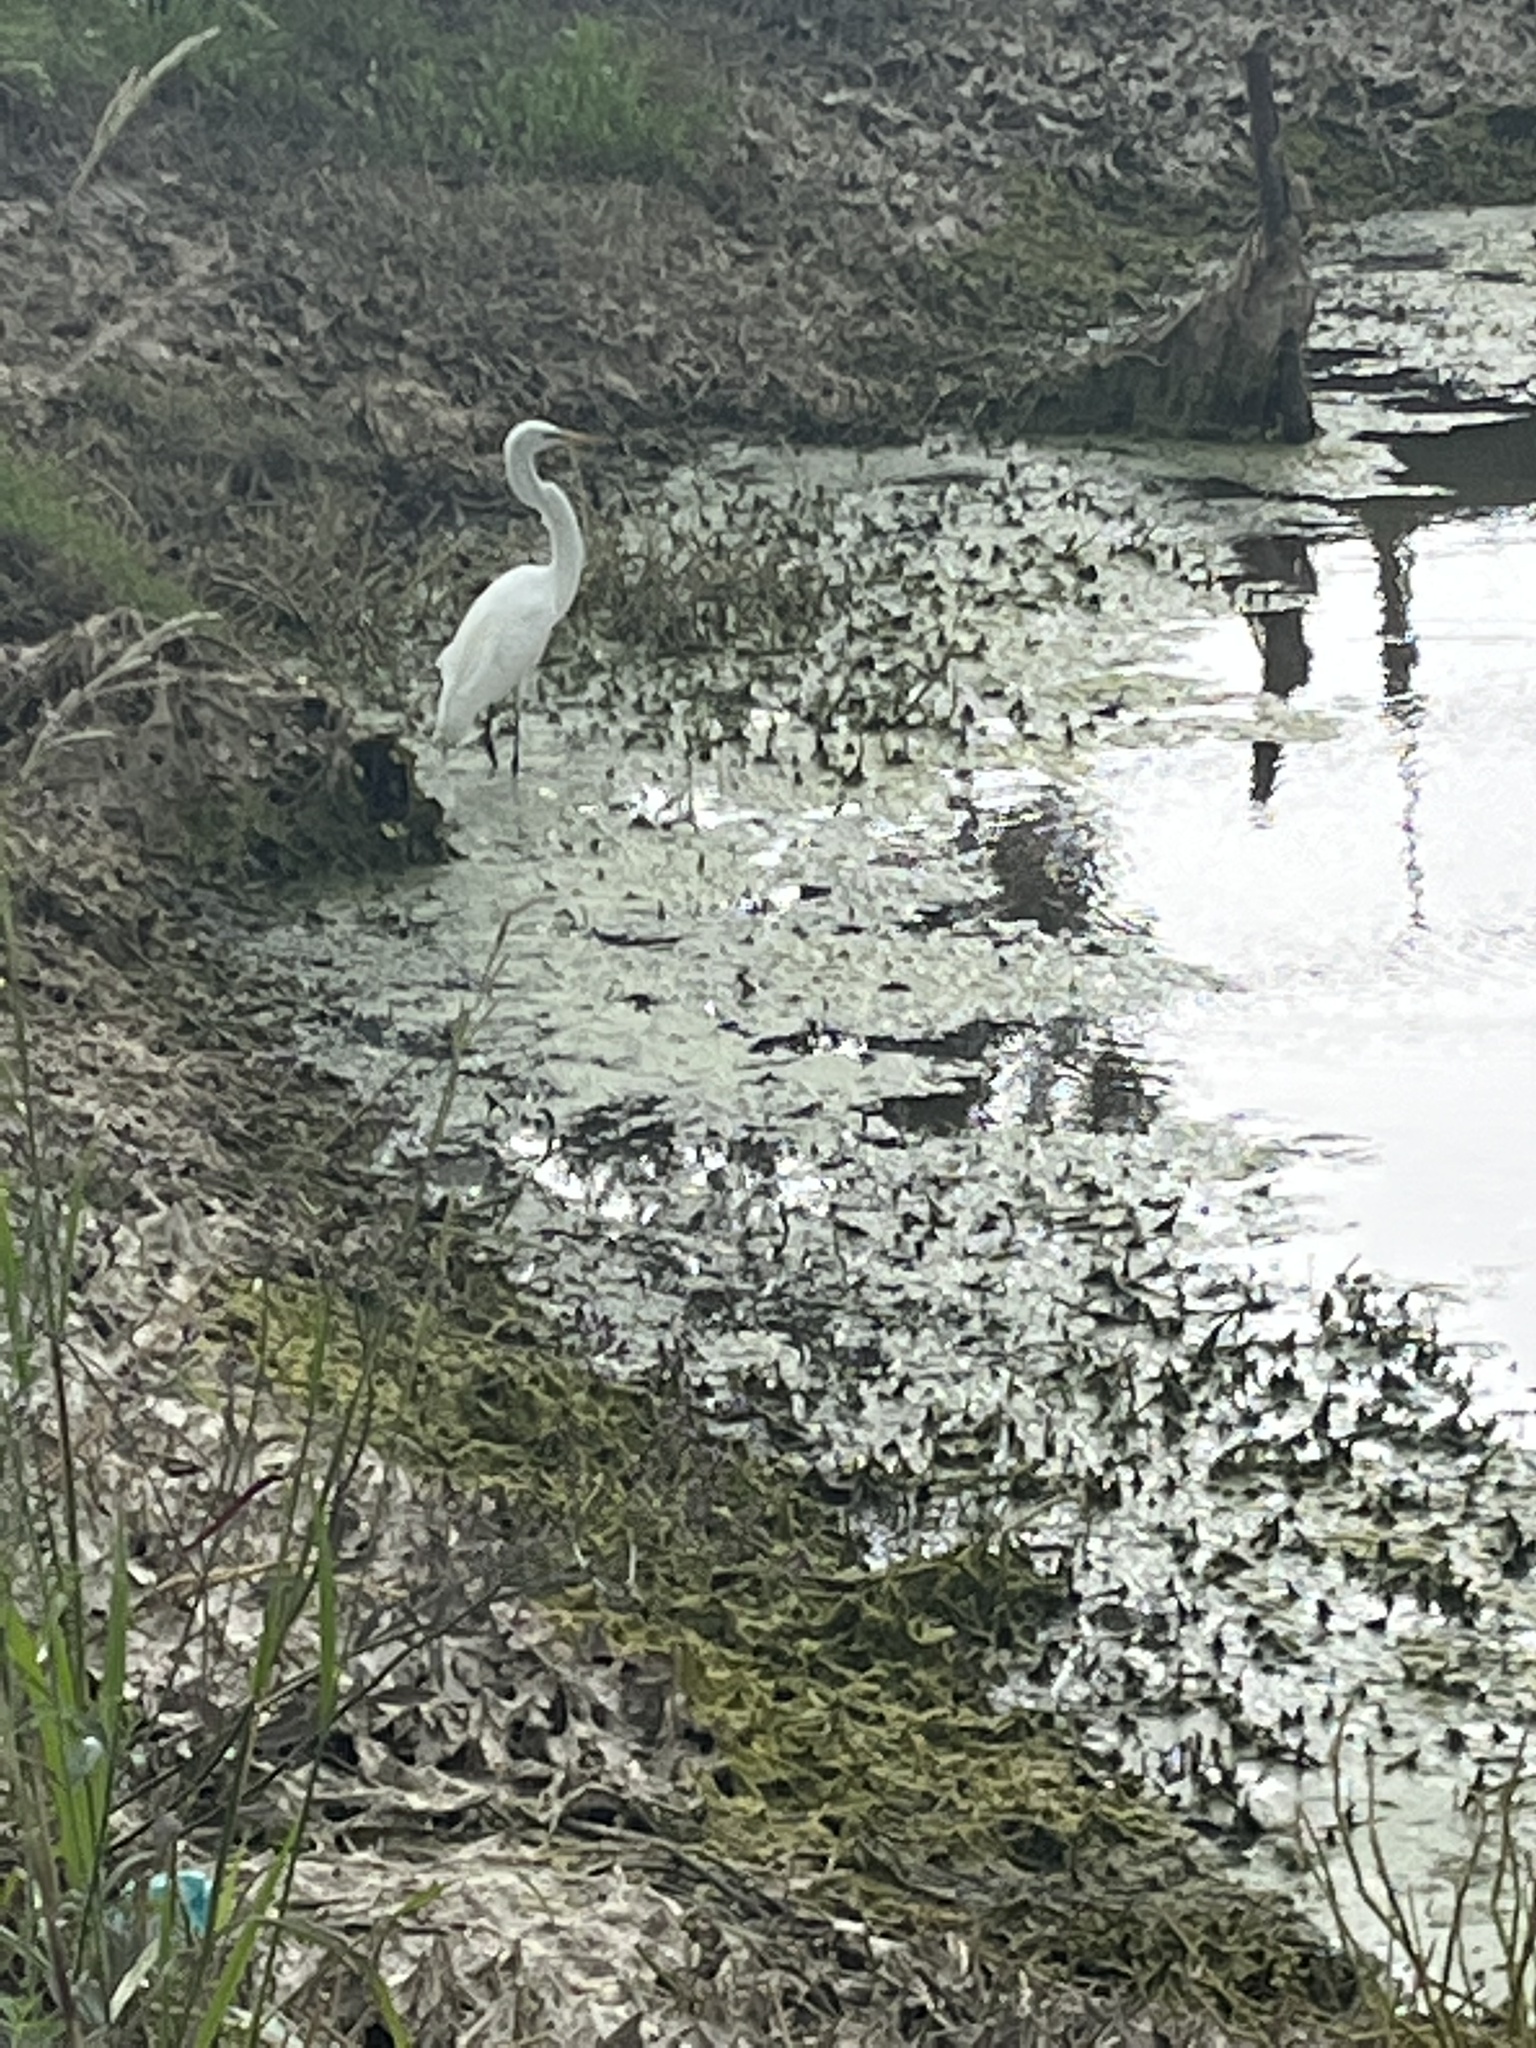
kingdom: Animalia
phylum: Chordata
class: Aves
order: Pelecaniformes
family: Ardeidae
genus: Ardea
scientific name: Ardea alba
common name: Great egret
